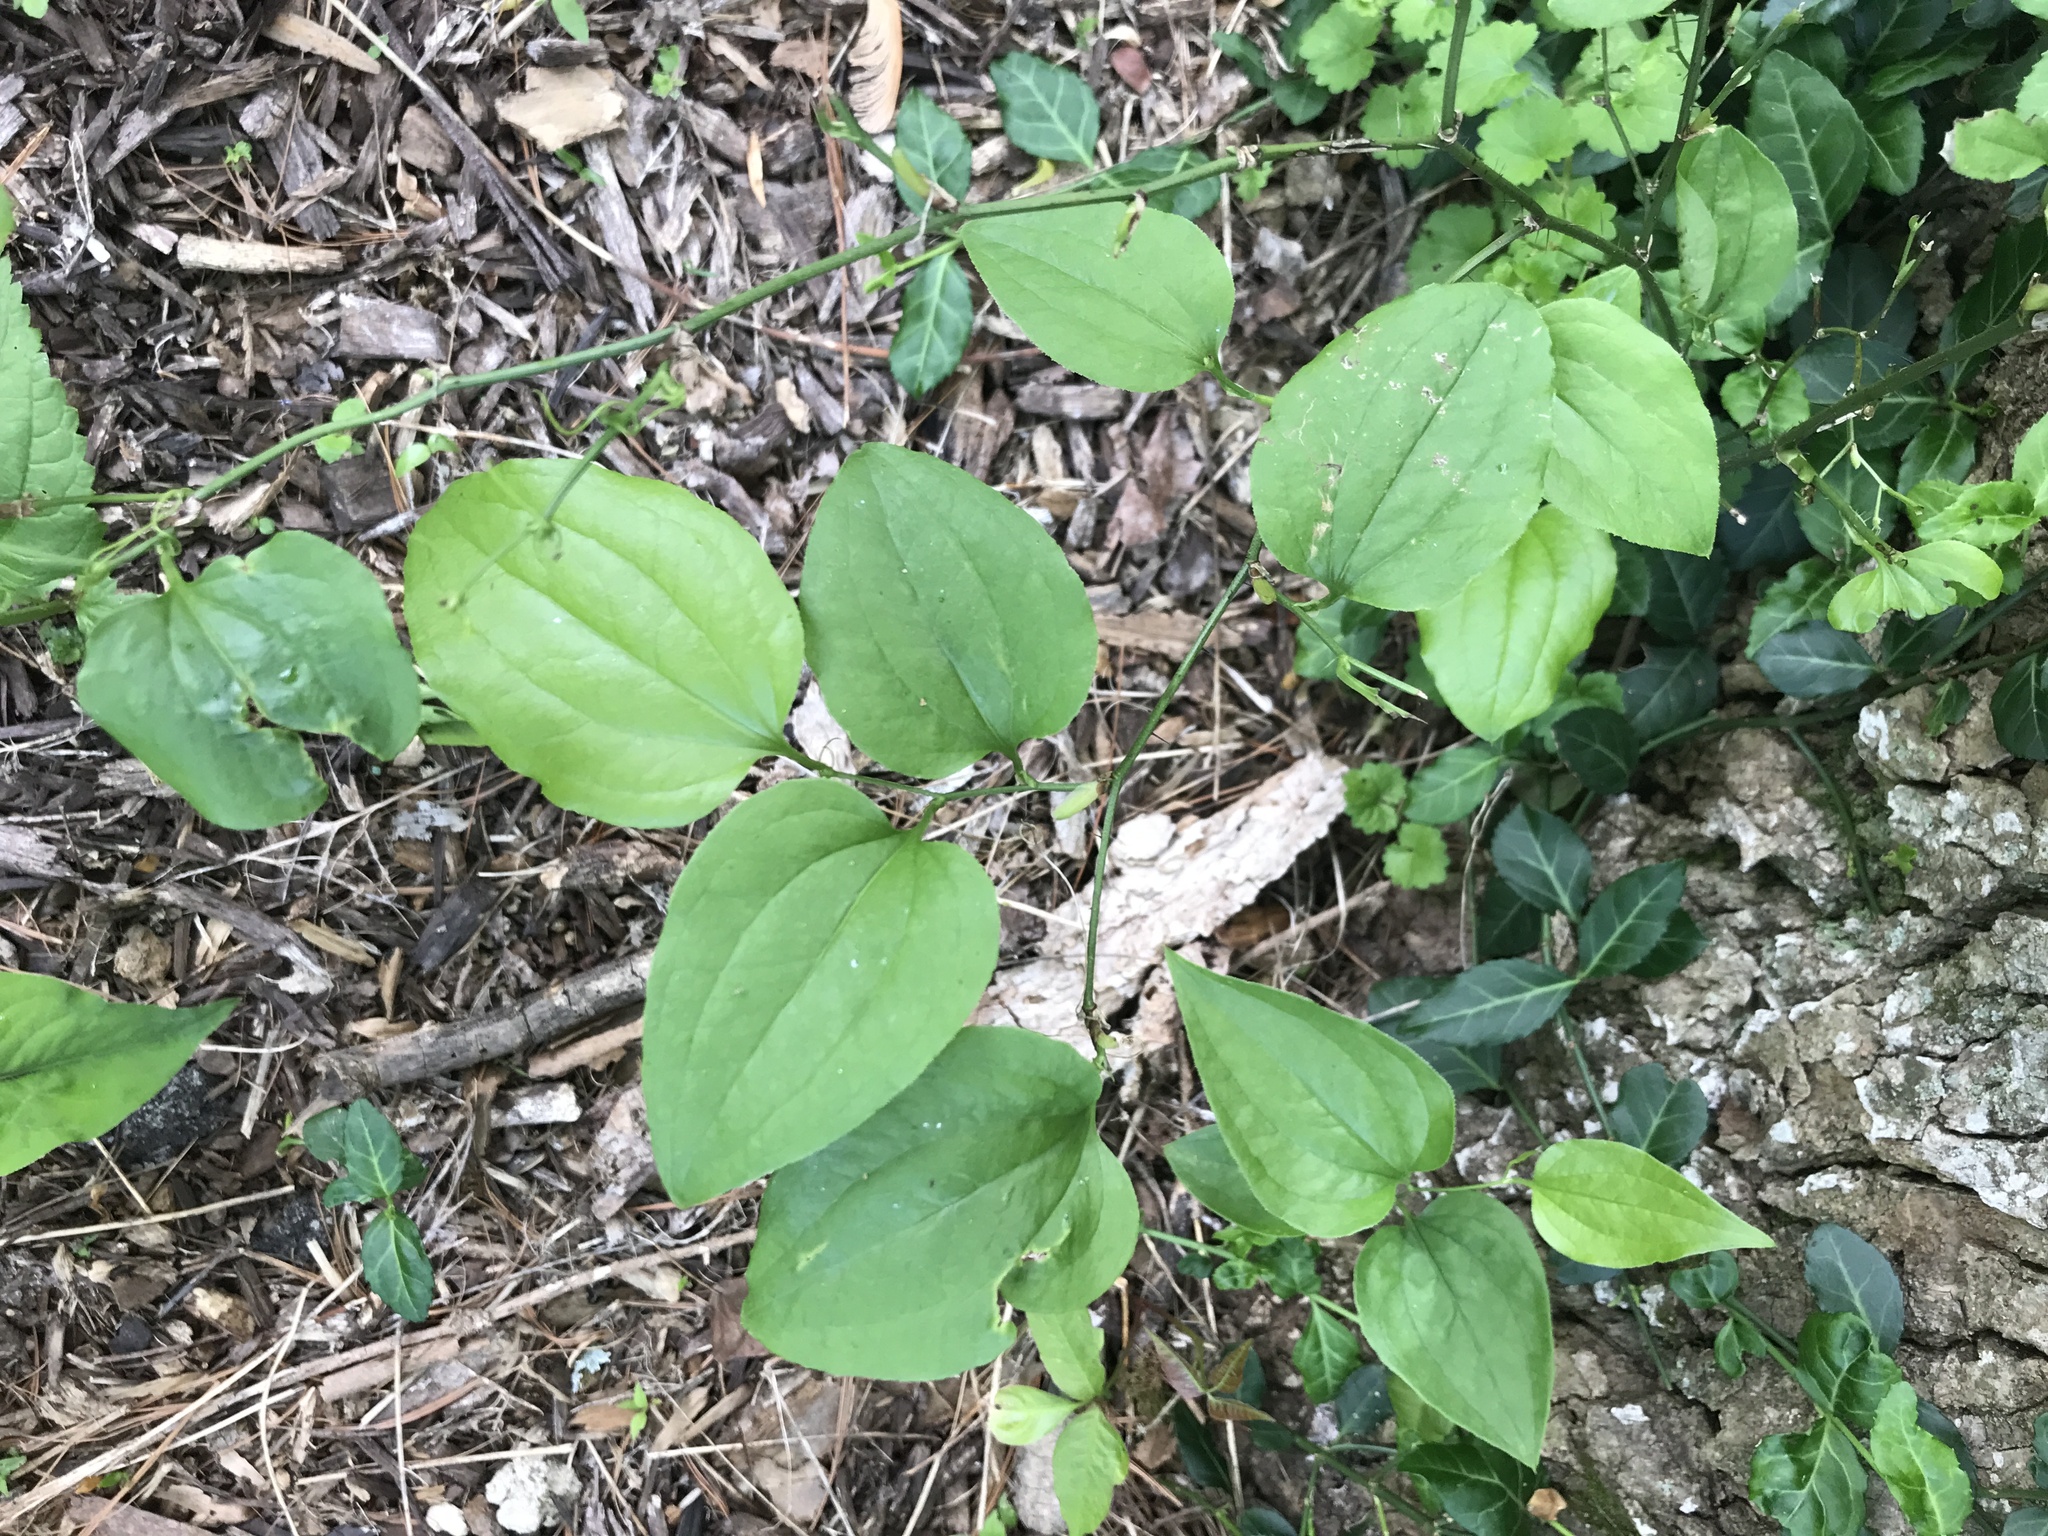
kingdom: Plantae
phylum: Tracheophyta
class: Liliopsida
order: Liliales
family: Smilacaceae
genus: Smilax
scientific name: Smilax tamnoides
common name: Hellfetter
